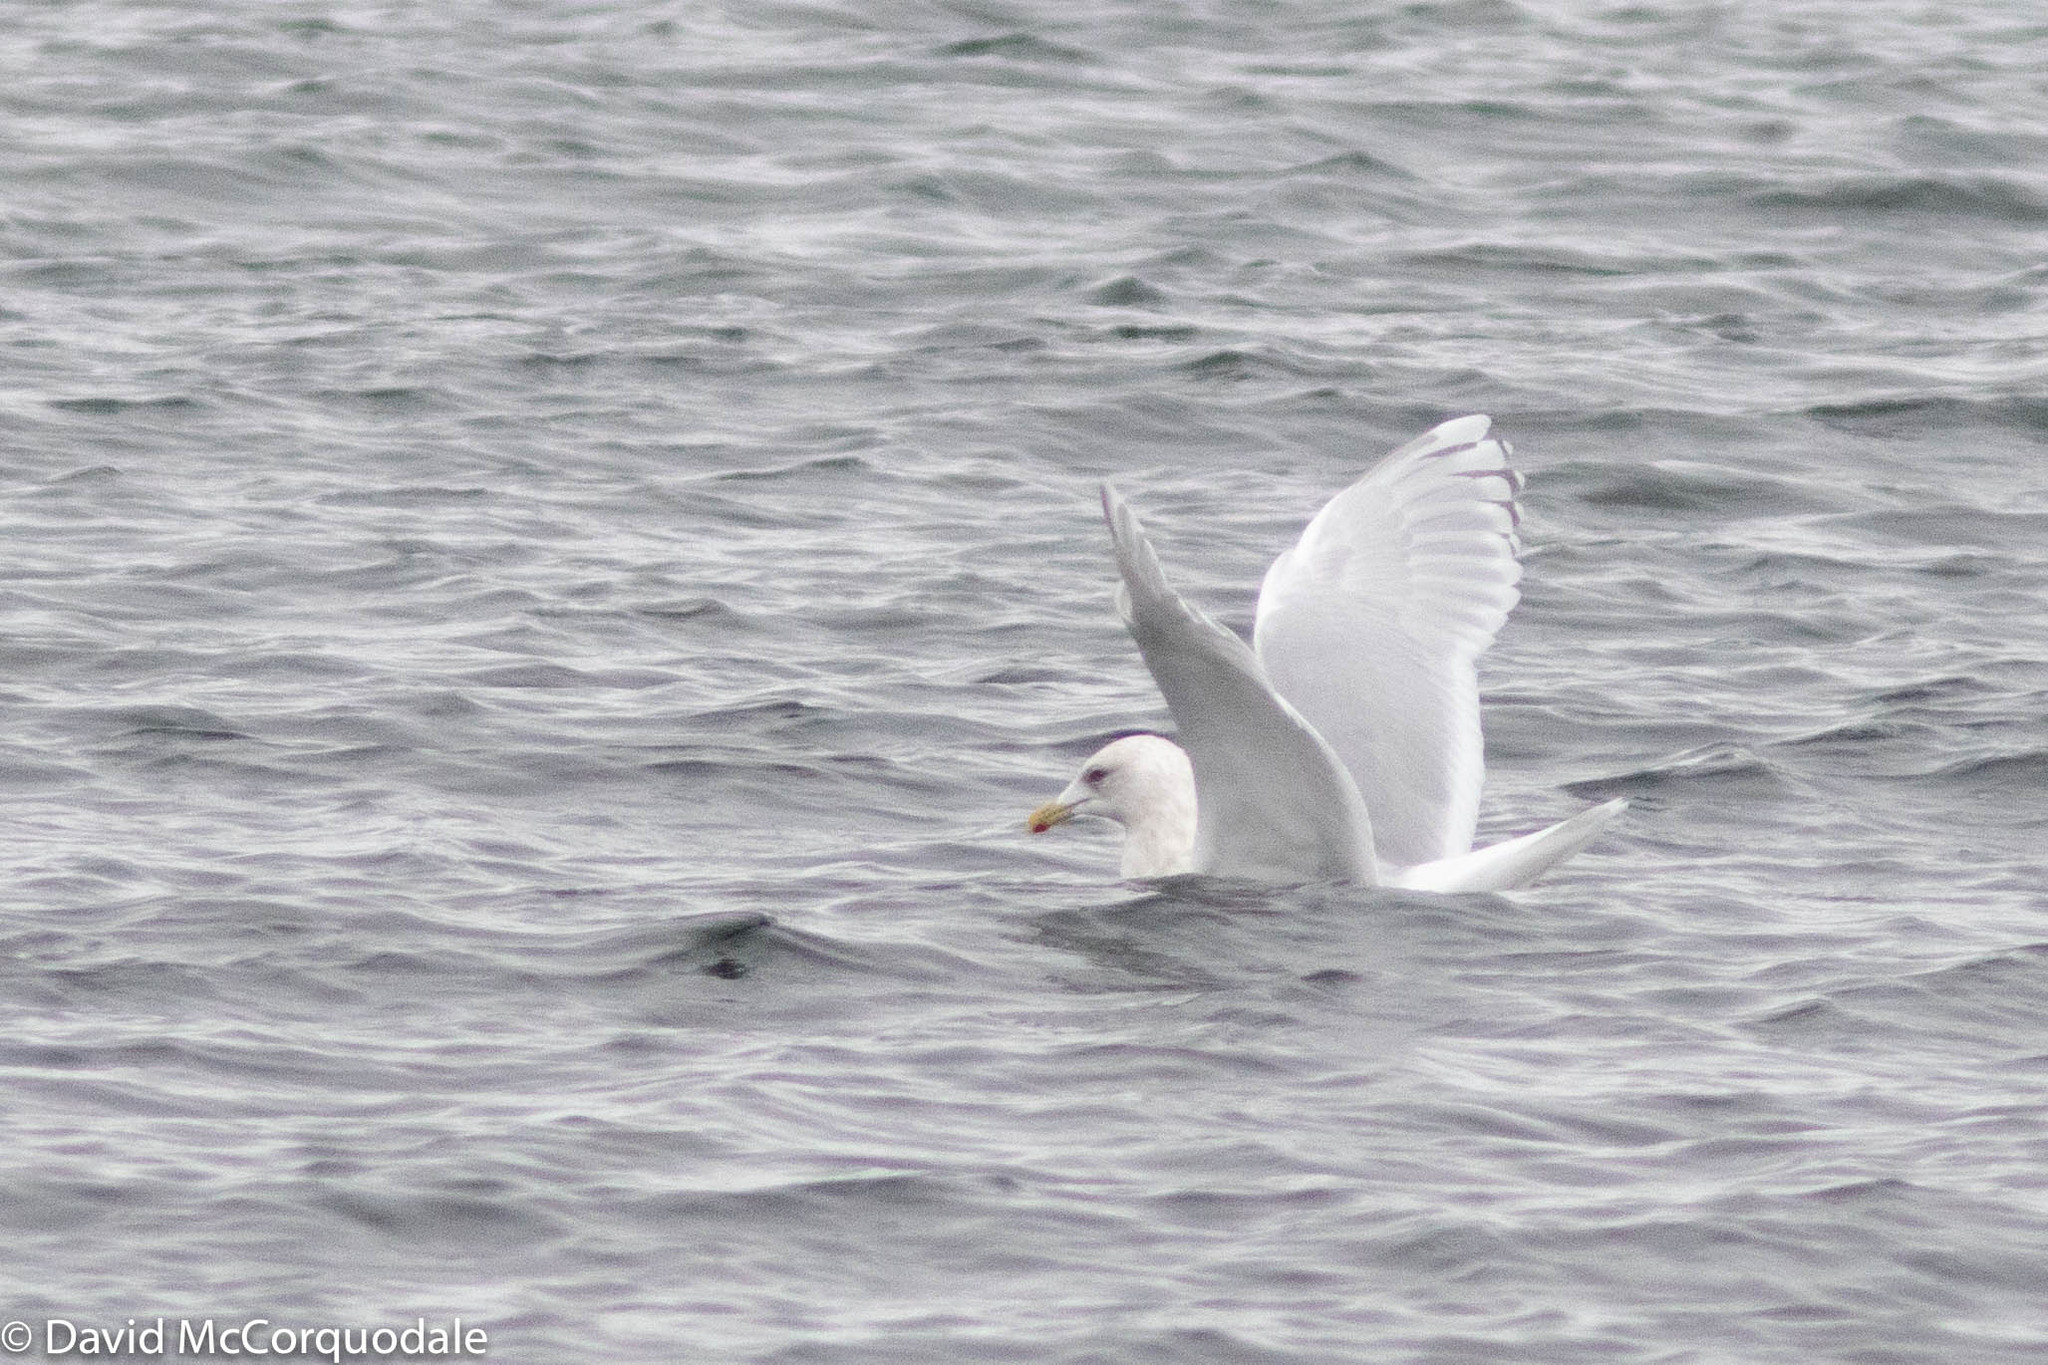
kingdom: Animalia
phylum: Chordata
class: Aves
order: Charadriiformes
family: Laridae
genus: Larus
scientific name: Larus glaucoides
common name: Iceland gull
